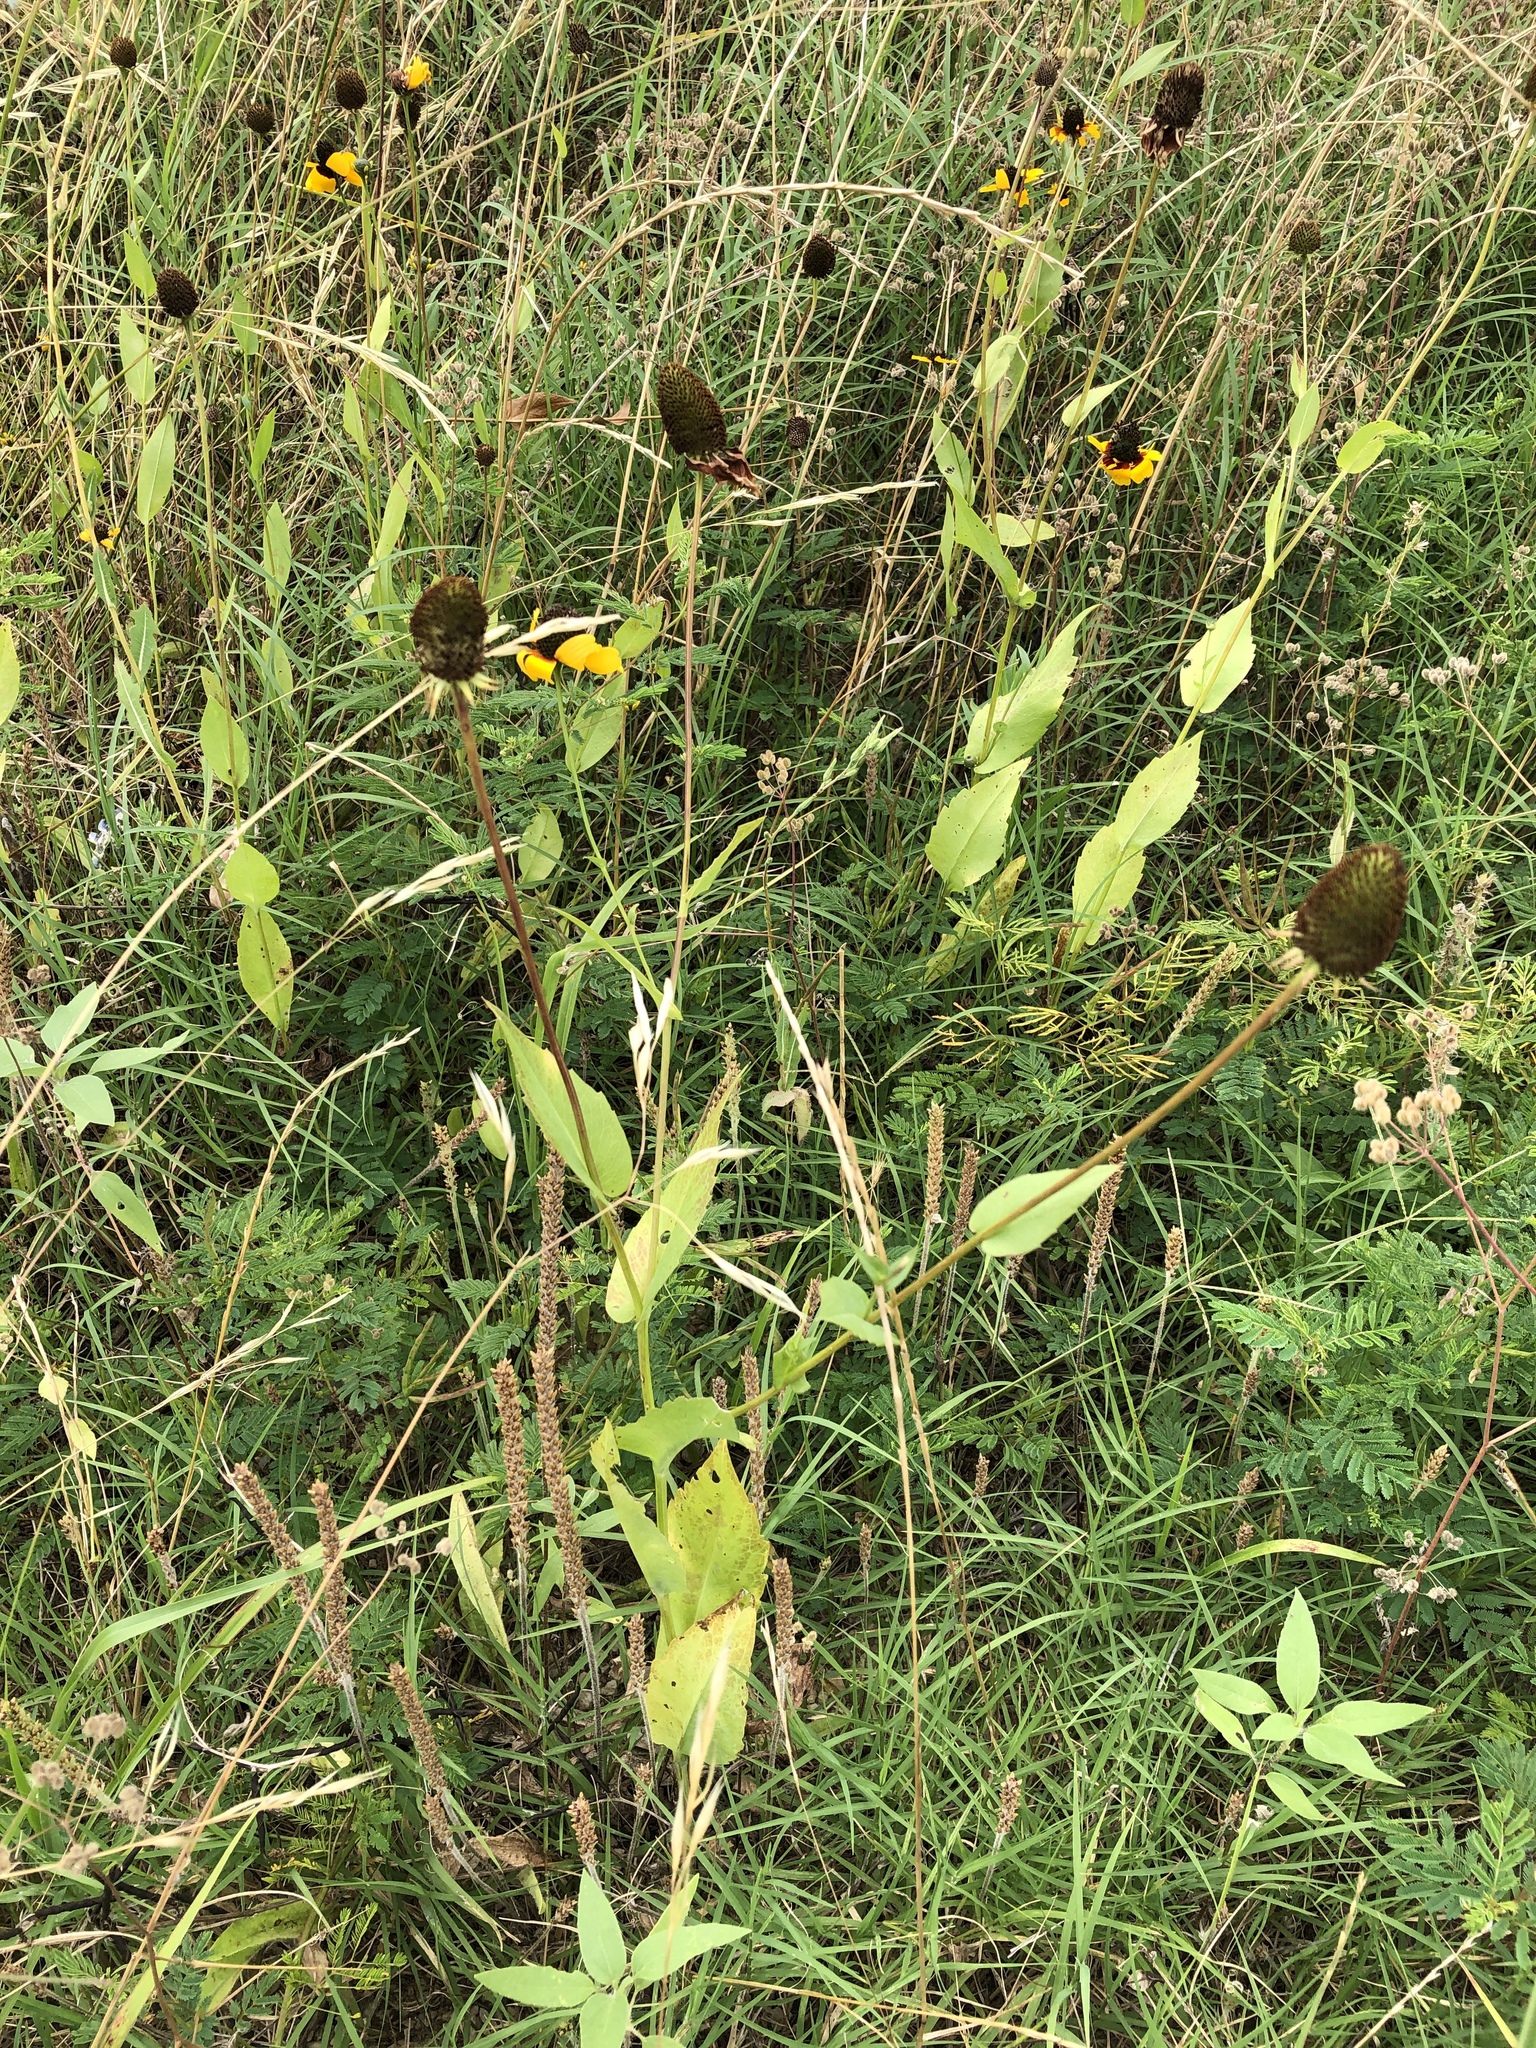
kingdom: Plantae
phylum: Tracheophyta
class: Magnoliopsida
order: Asterales
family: Asteraceae
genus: Rudbeckia
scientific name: Rudbeckia amplexicaulis
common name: Clasping-leaf coneflower
